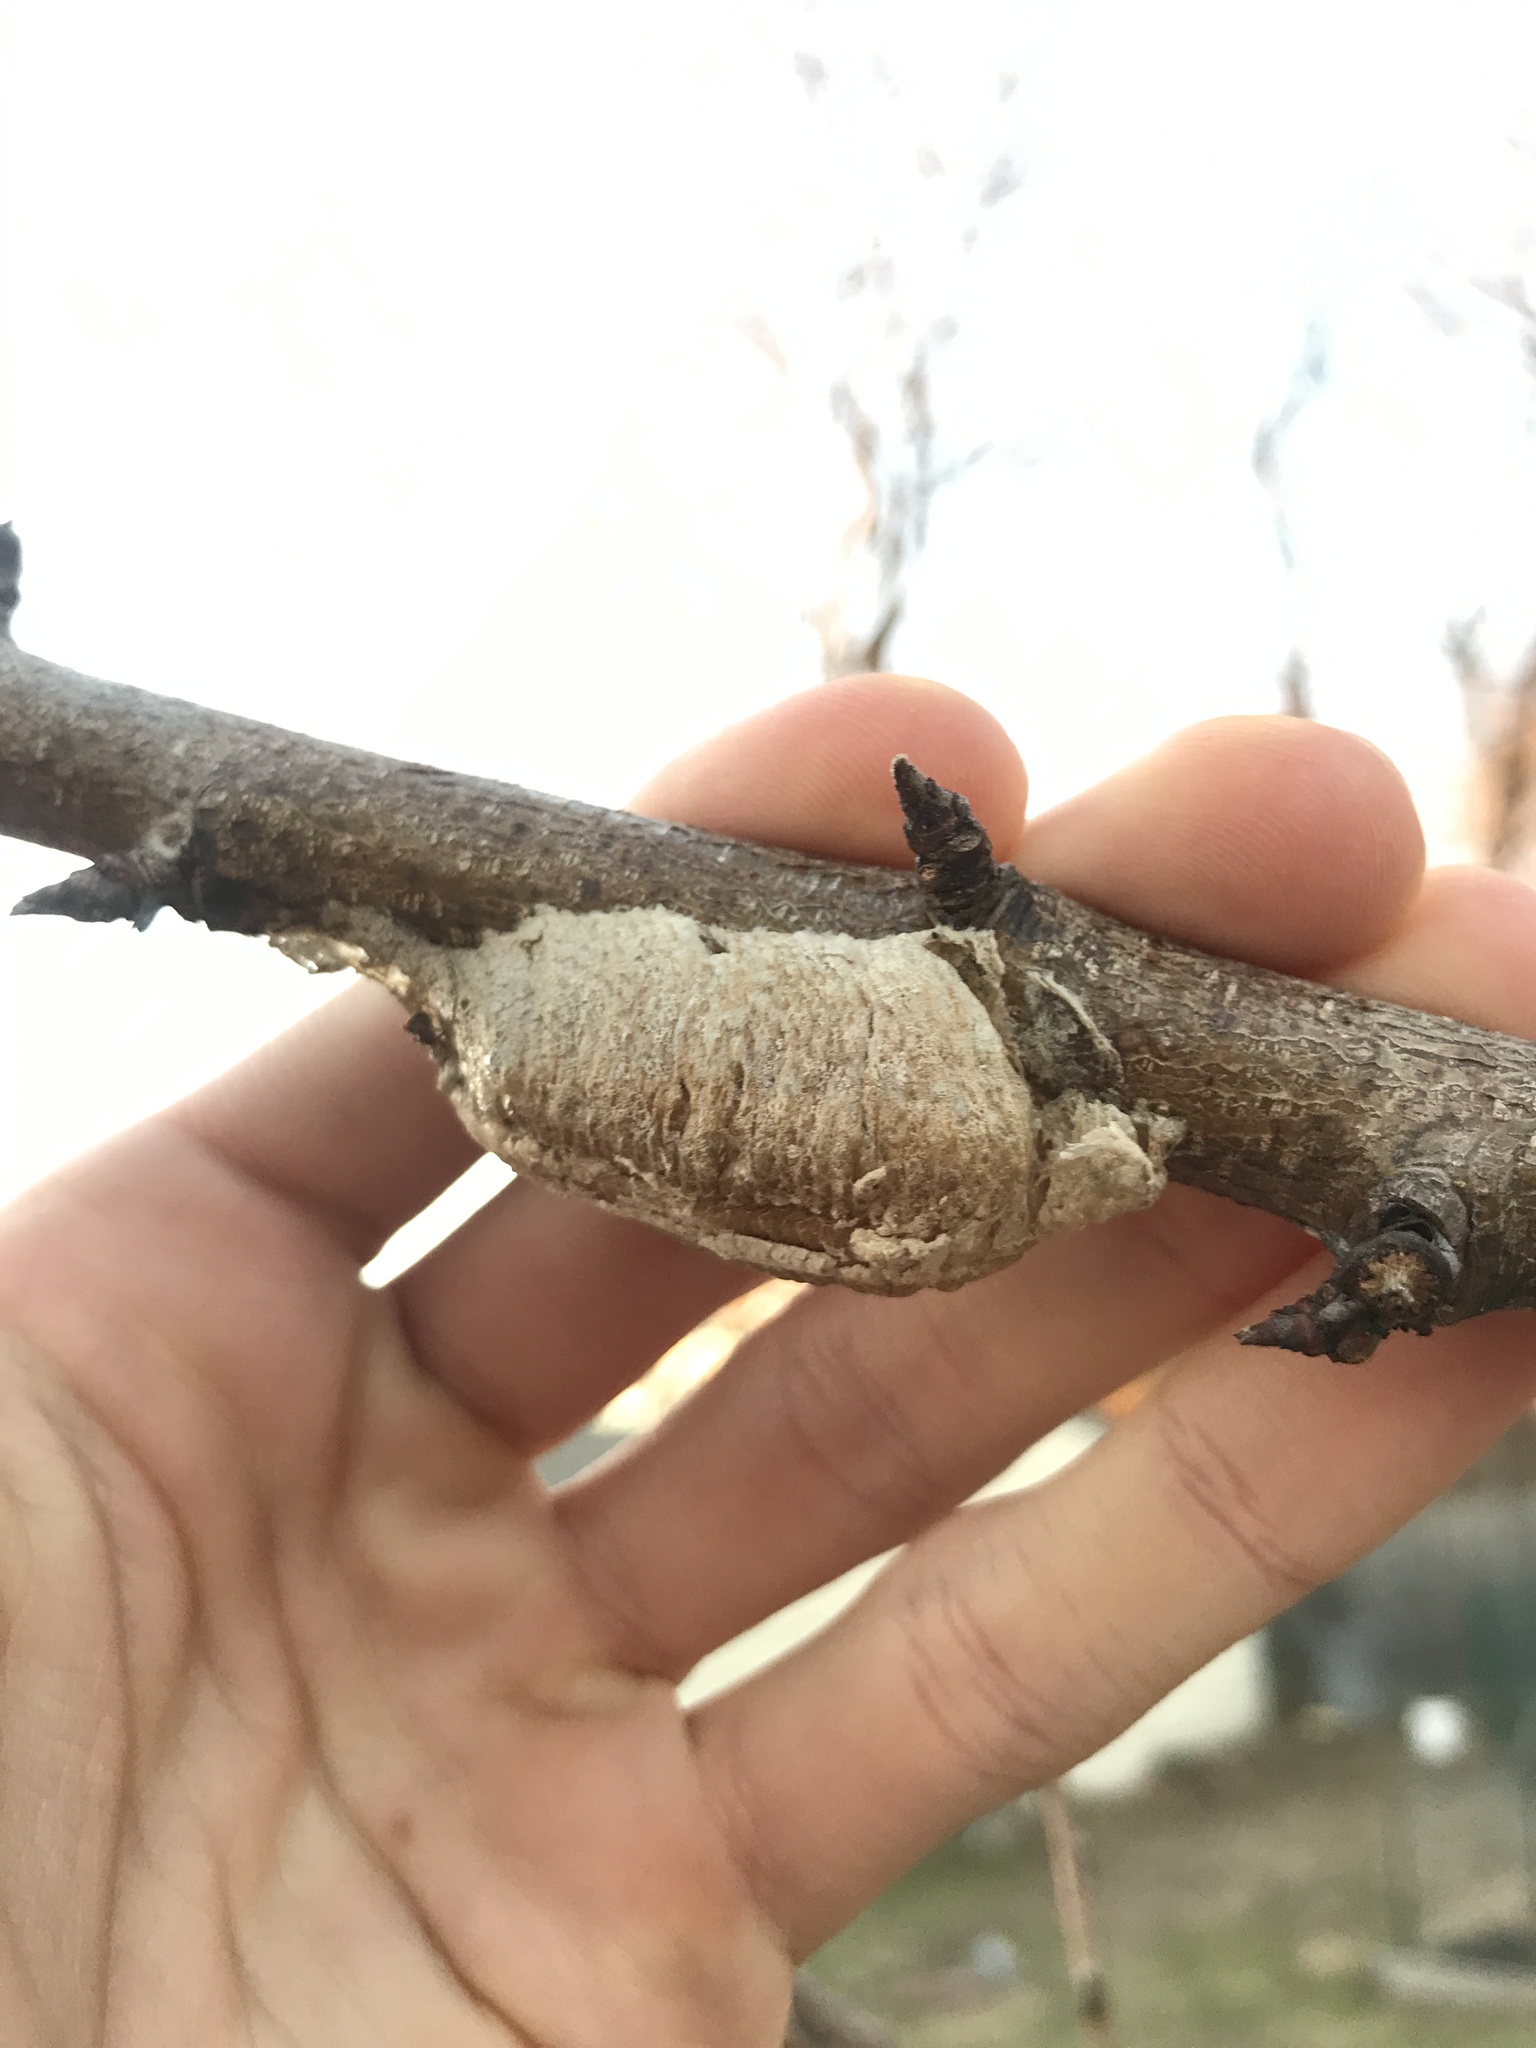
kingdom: Animalia
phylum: Arthropoda
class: Insecta
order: Mantodea
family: Mantidae
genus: Mantis
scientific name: Mantis religiosa
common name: Praying mantis
